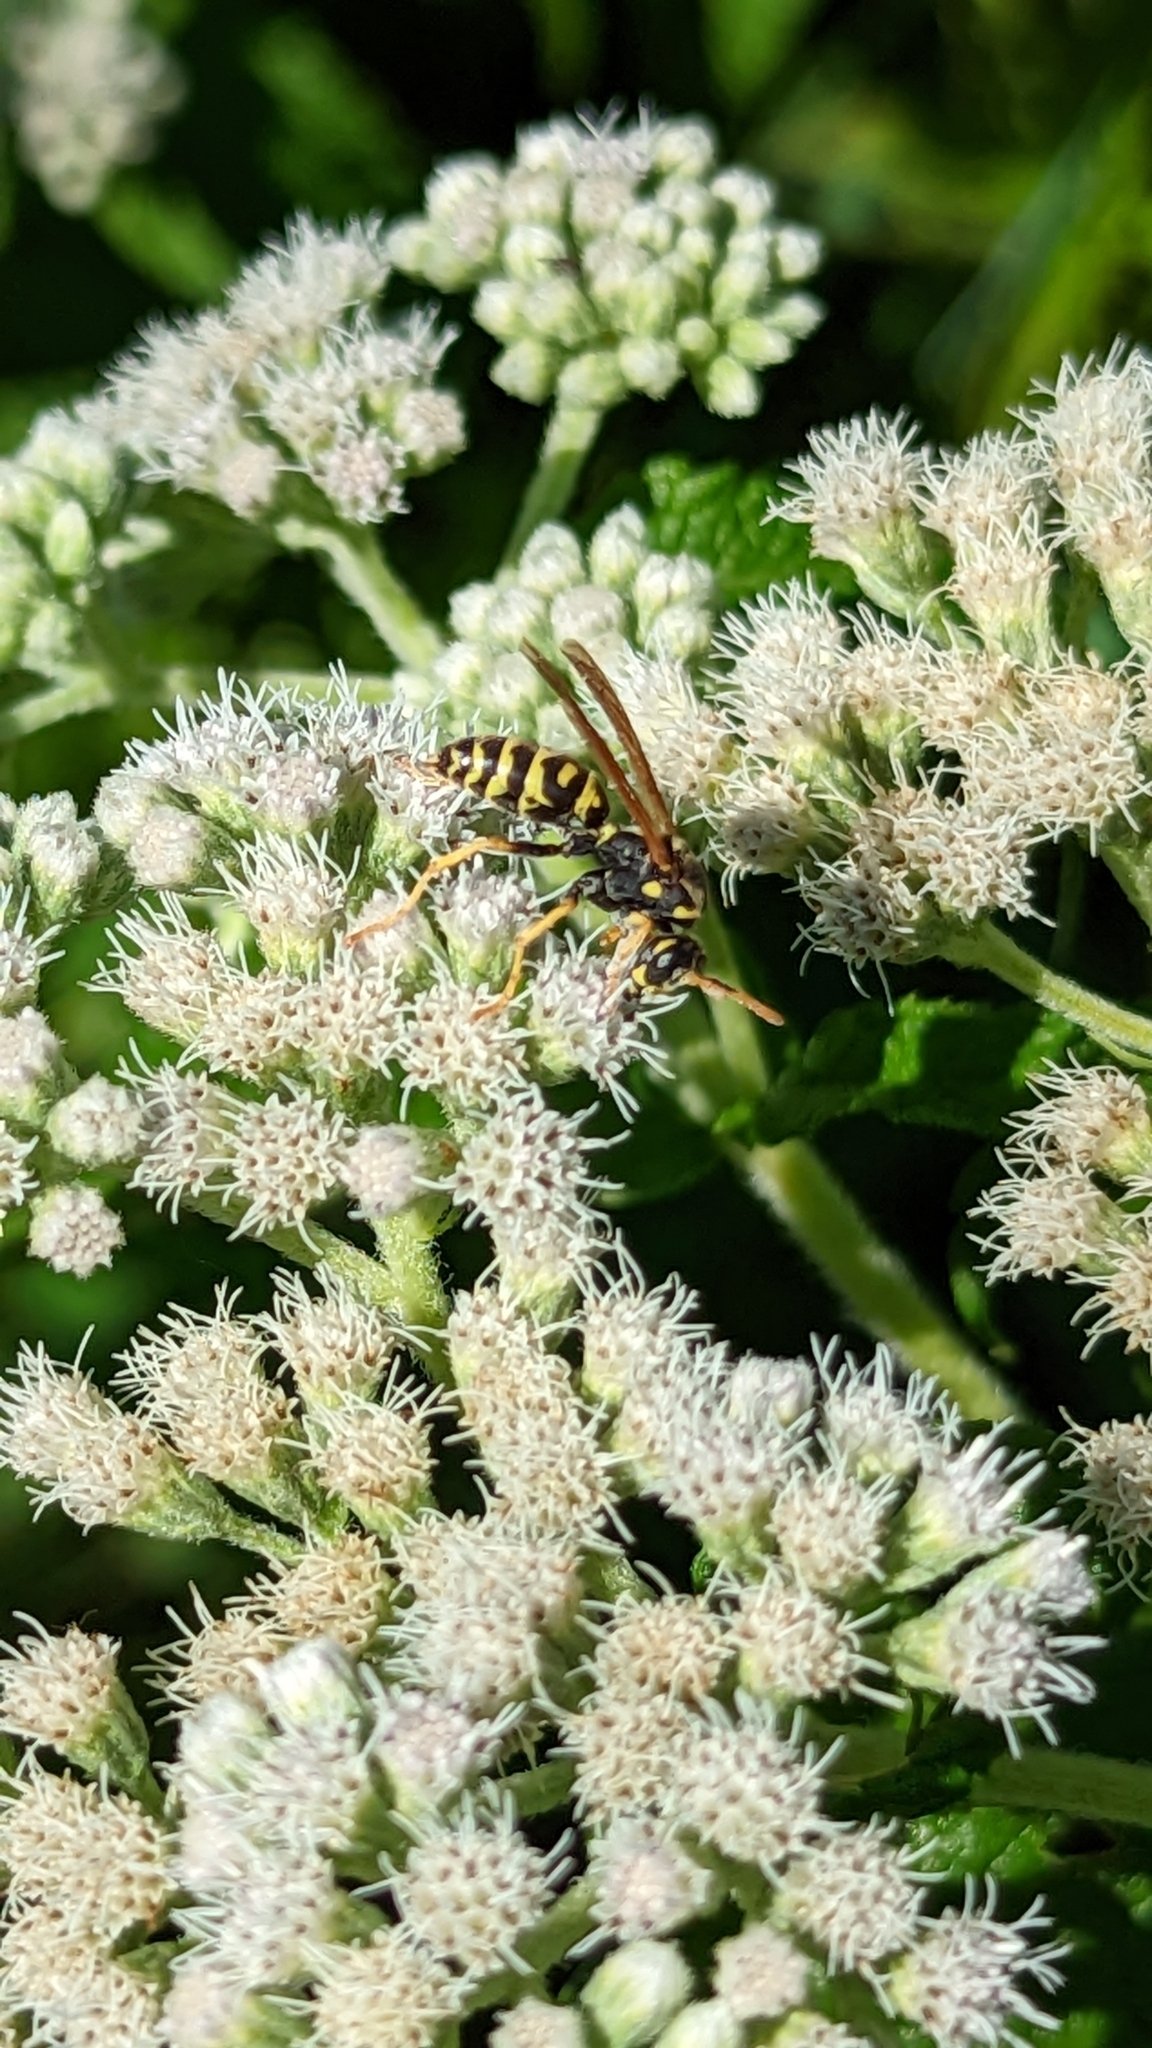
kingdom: Animalia
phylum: Arthropoda
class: Insecta
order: Hymenoptera
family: Eumenidae
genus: Polistes
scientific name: Polistes dominula
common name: Paper wasp
